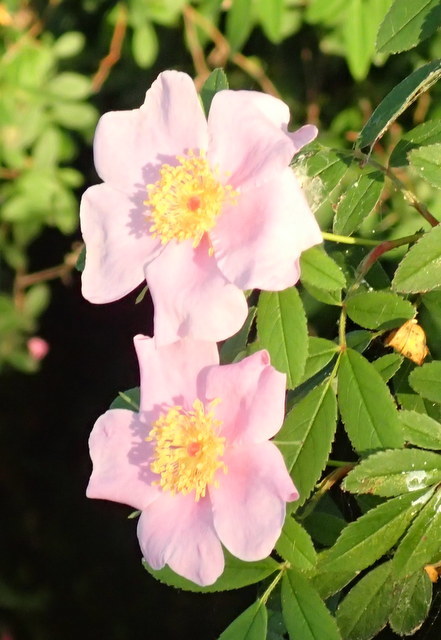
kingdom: Plantae
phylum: Tracheophyta
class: Magnoliopsida
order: Rosales
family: Rosaceae
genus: Rosa
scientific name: Rosa palustris
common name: Swamp rose
